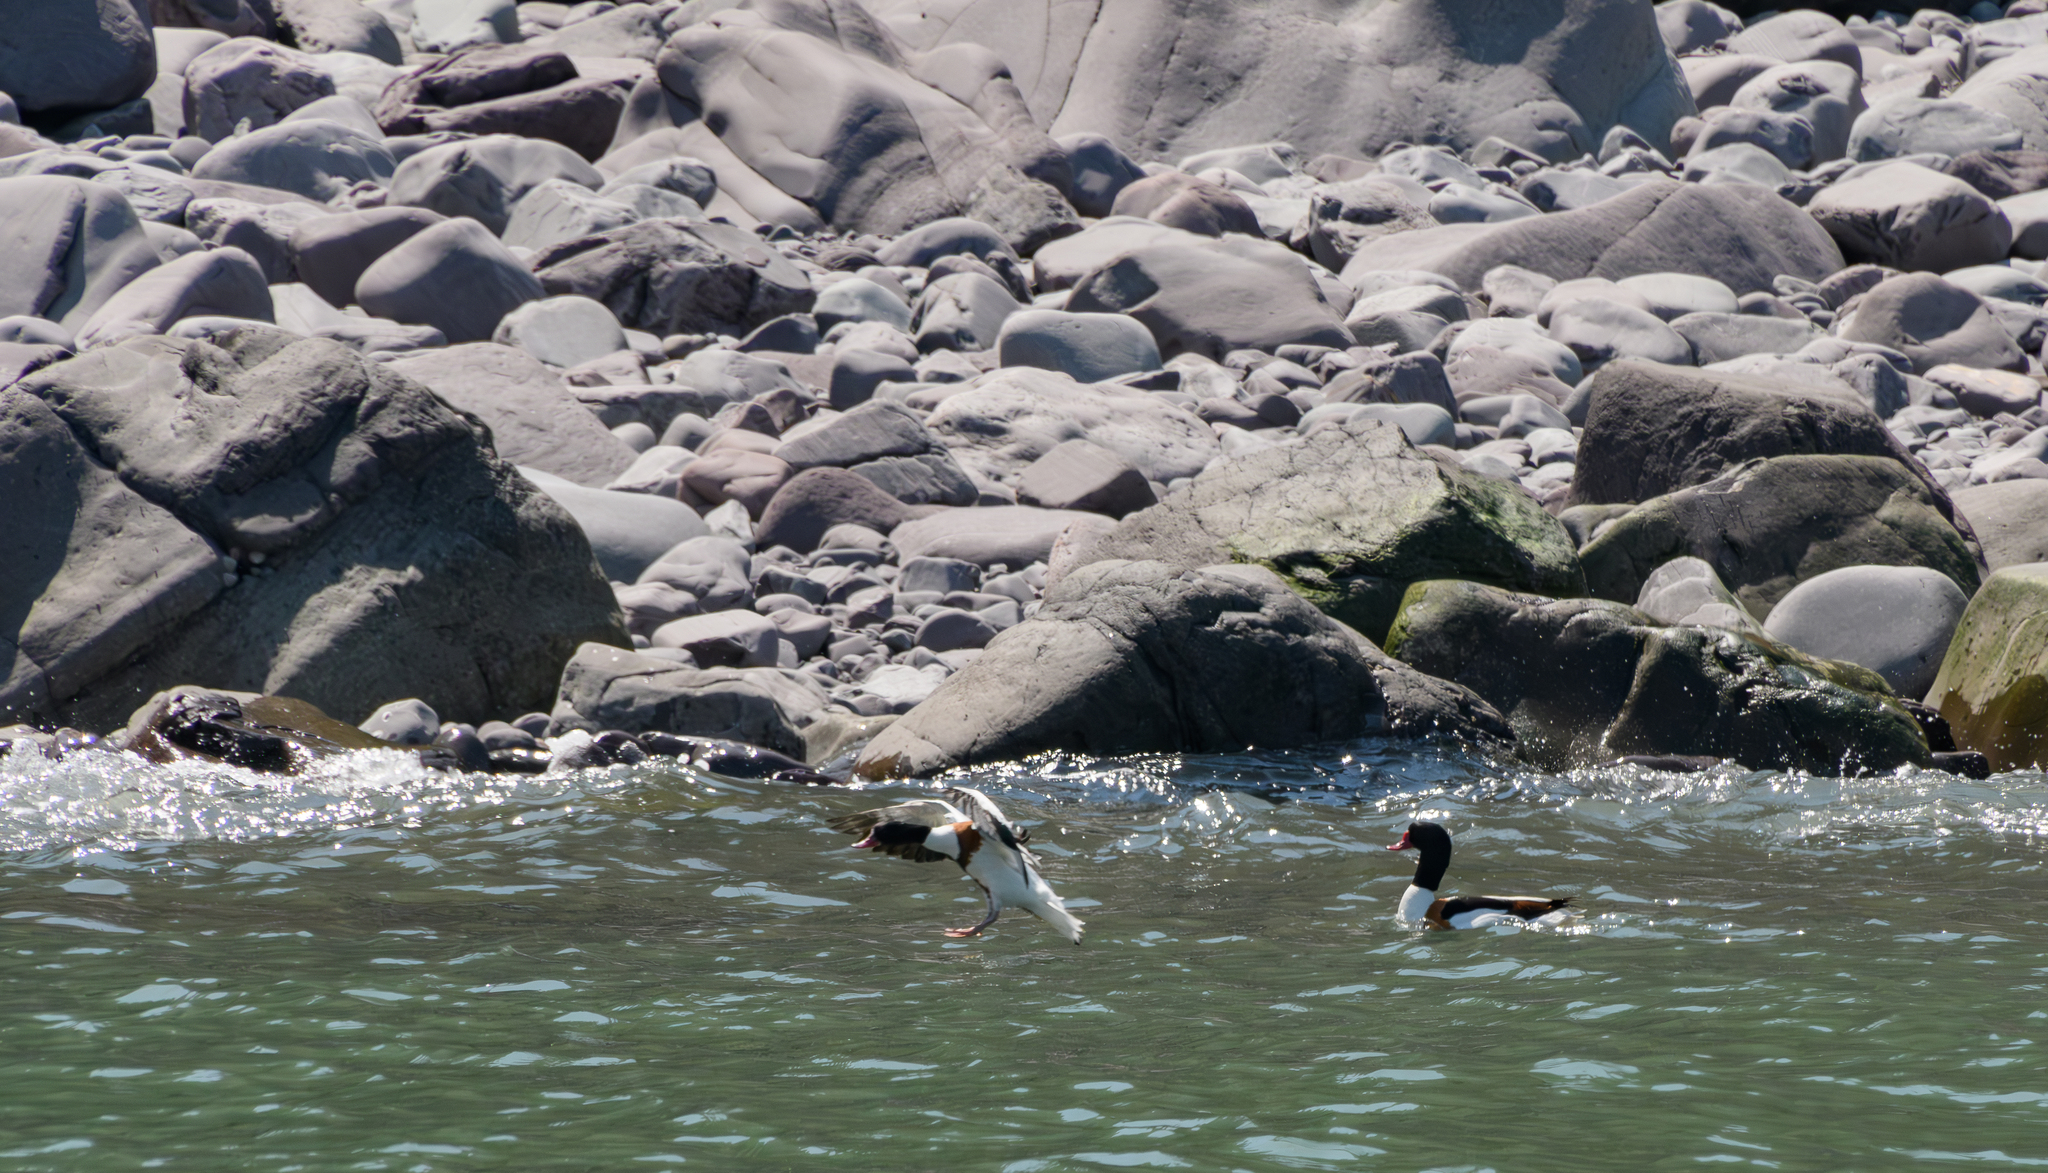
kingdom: Animalia
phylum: Chordata
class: Aves
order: Anseriformes
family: Anatidae
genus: Tadorna
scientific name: Tadorna tadorna
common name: Common shelduck
